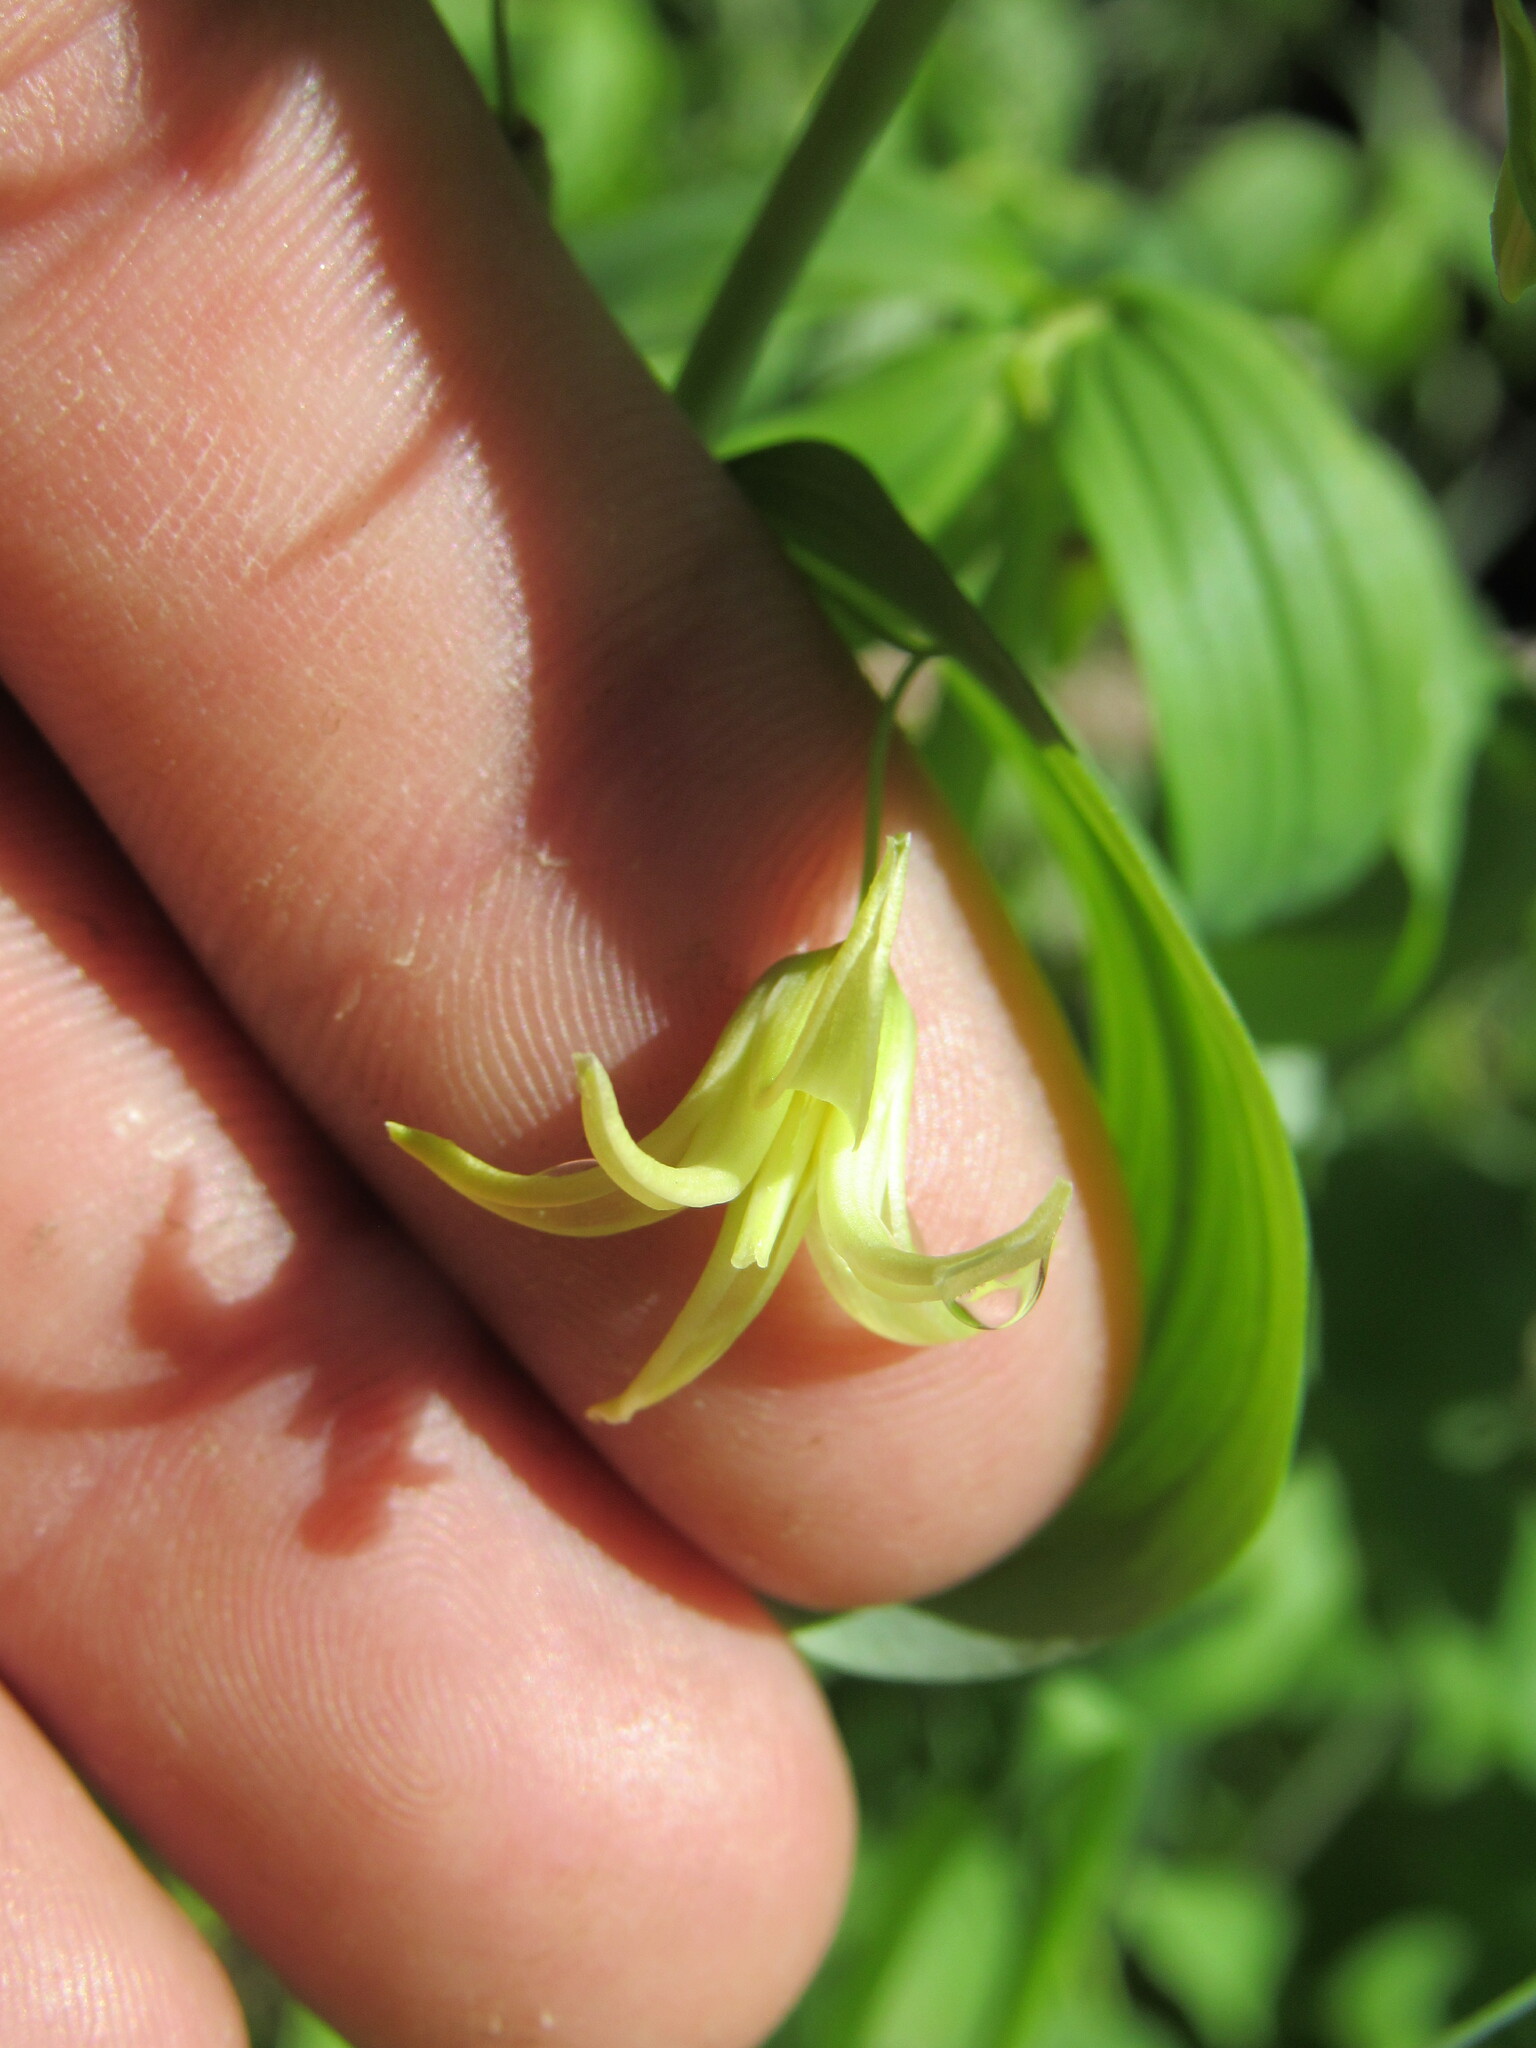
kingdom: Plantae
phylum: Tracheophyta
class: Liliopsida
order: Liliales
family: Liliaceae
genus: Streptopus
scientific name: Streptopus amplexifolius
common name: Clasp twisted stalk
